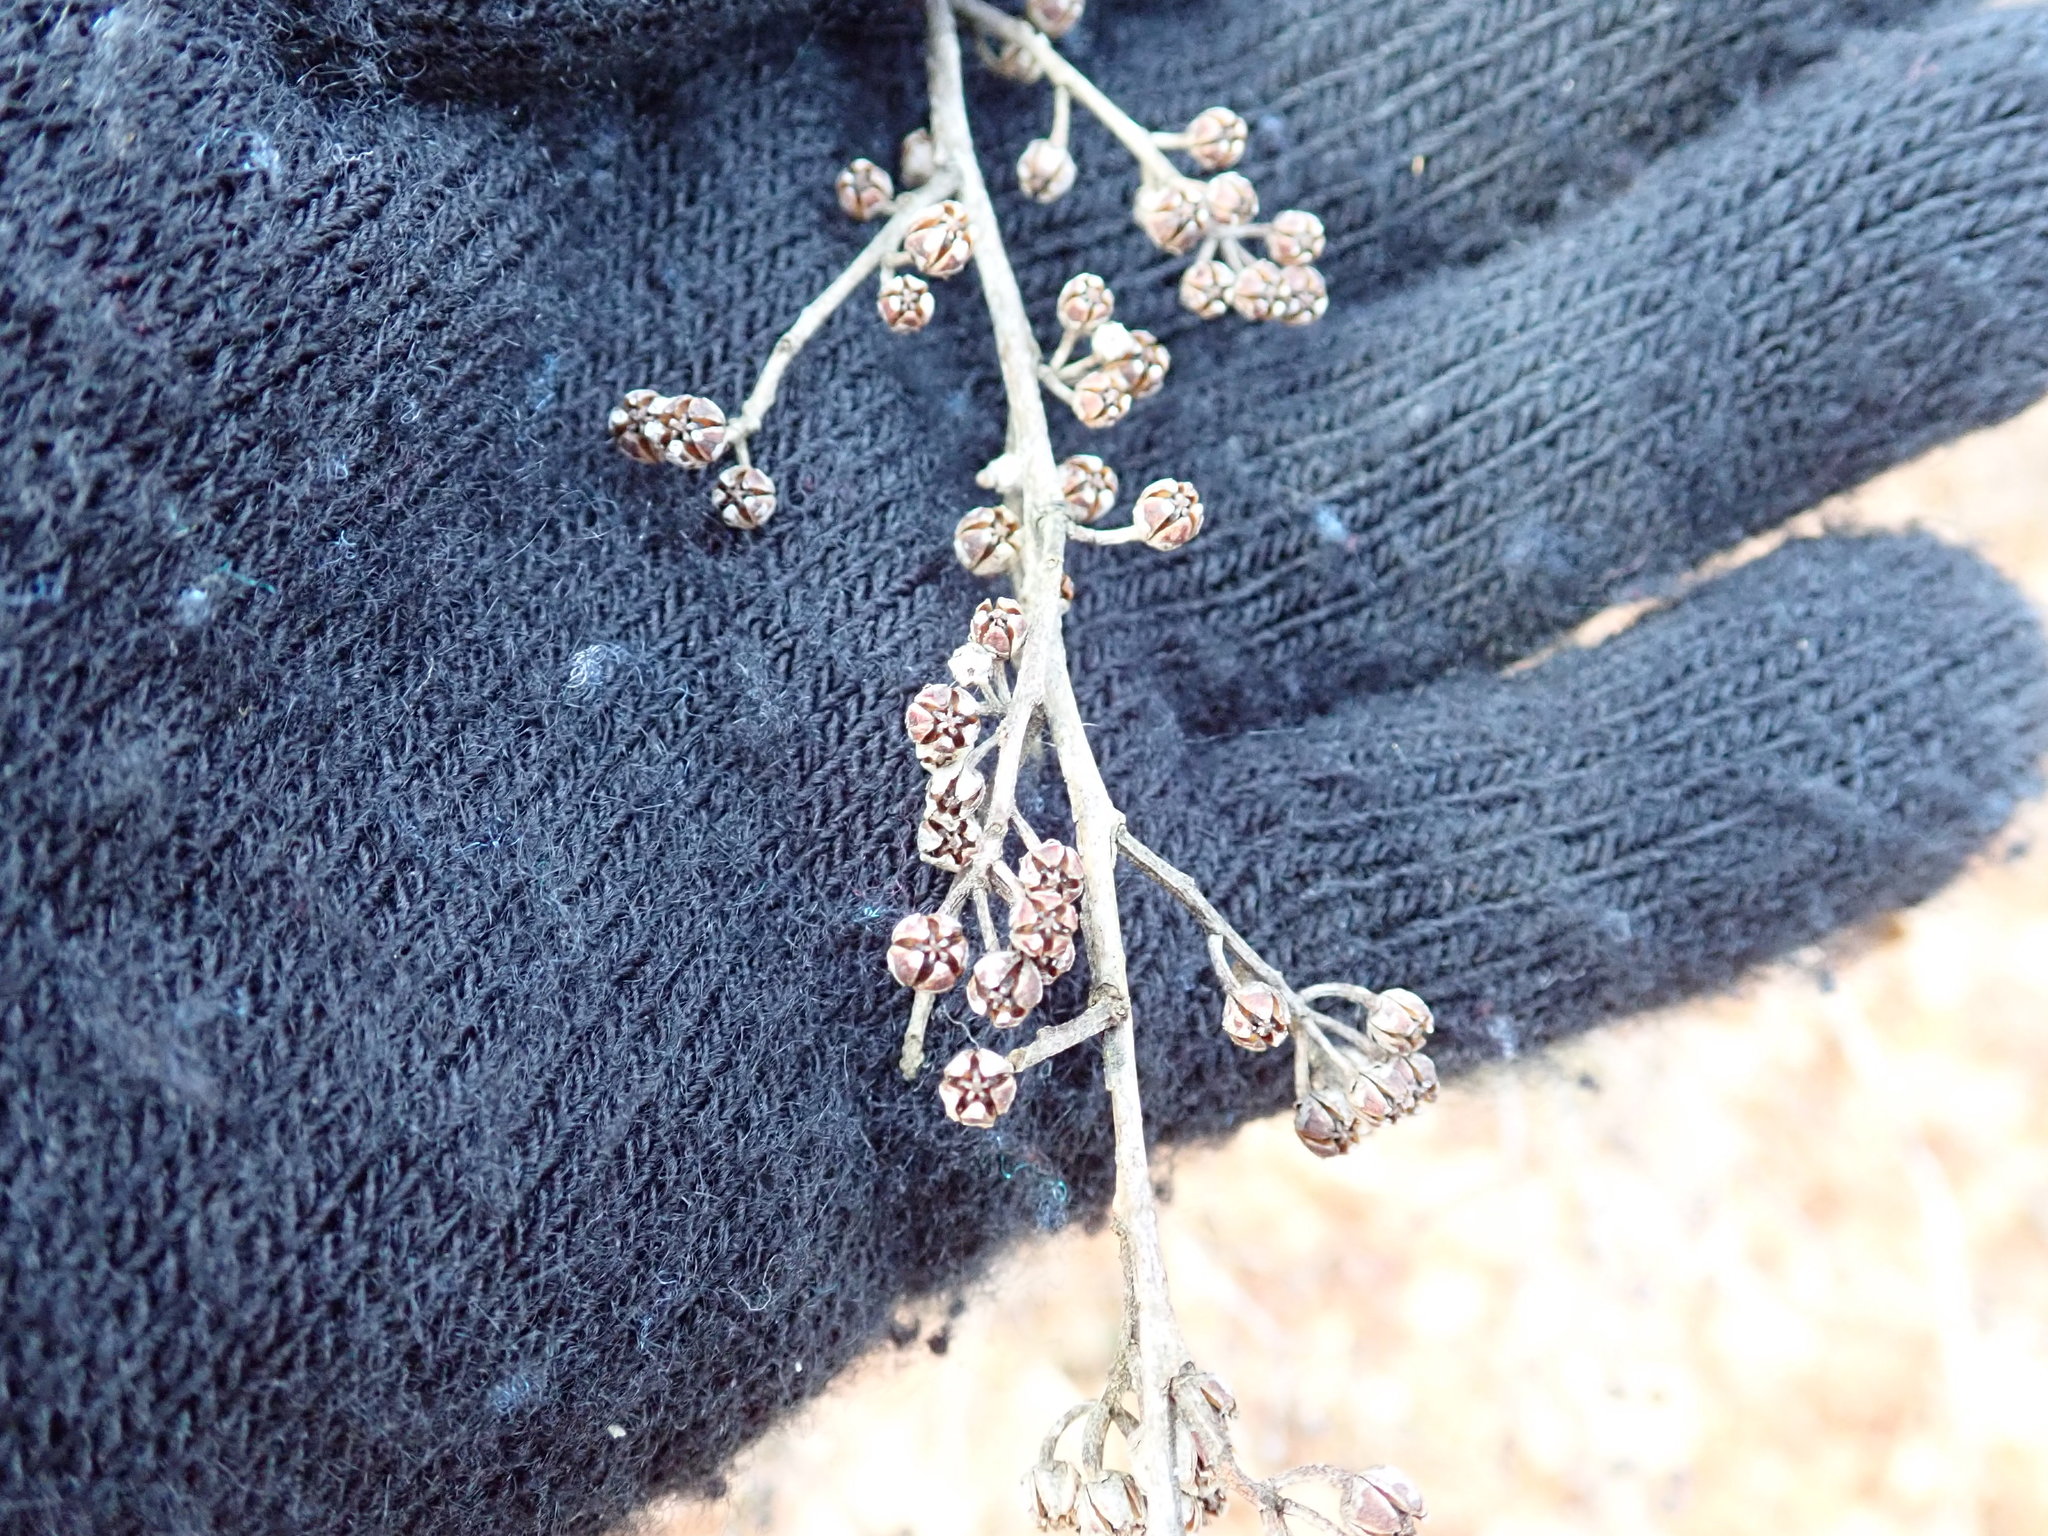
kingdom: Plantae
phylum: Tracheophyta
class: Magnoliopsida
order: Ericales
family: Ericaceae
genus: Lyonia
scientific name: Lyonia ligustrina
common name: Maleberry
